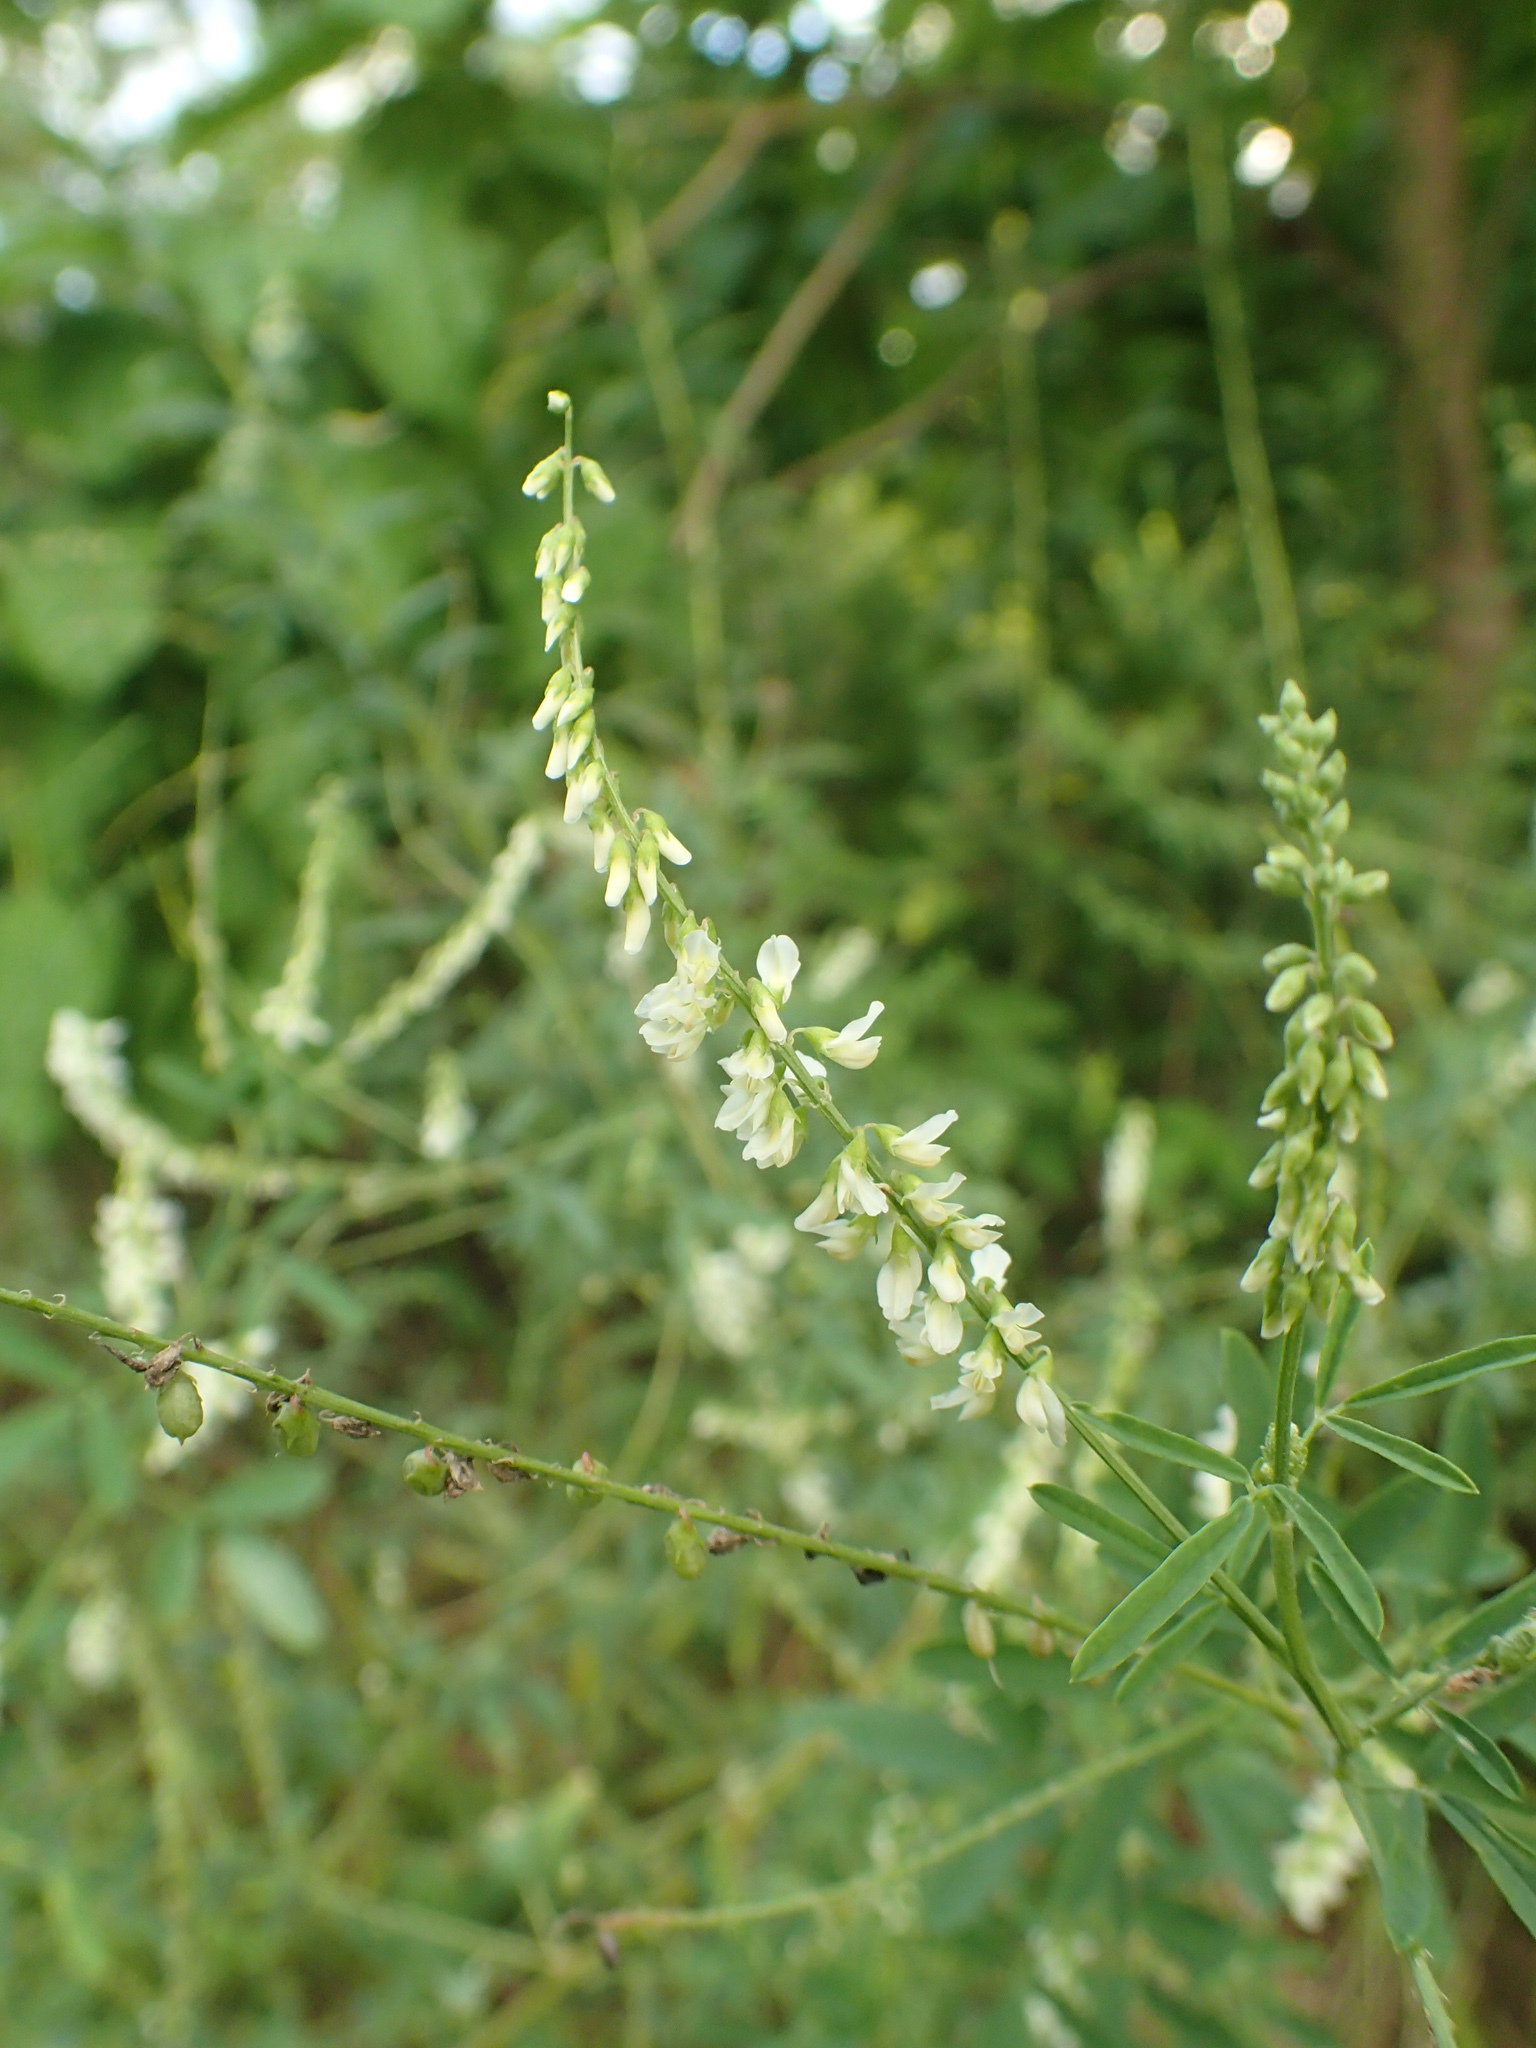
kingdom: Plantae
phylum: Tracheophyta
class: Magnoliopsida
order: Fabales
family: Fabaceae
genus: Melilotus
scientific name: Melilotus albus
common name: White melilot
